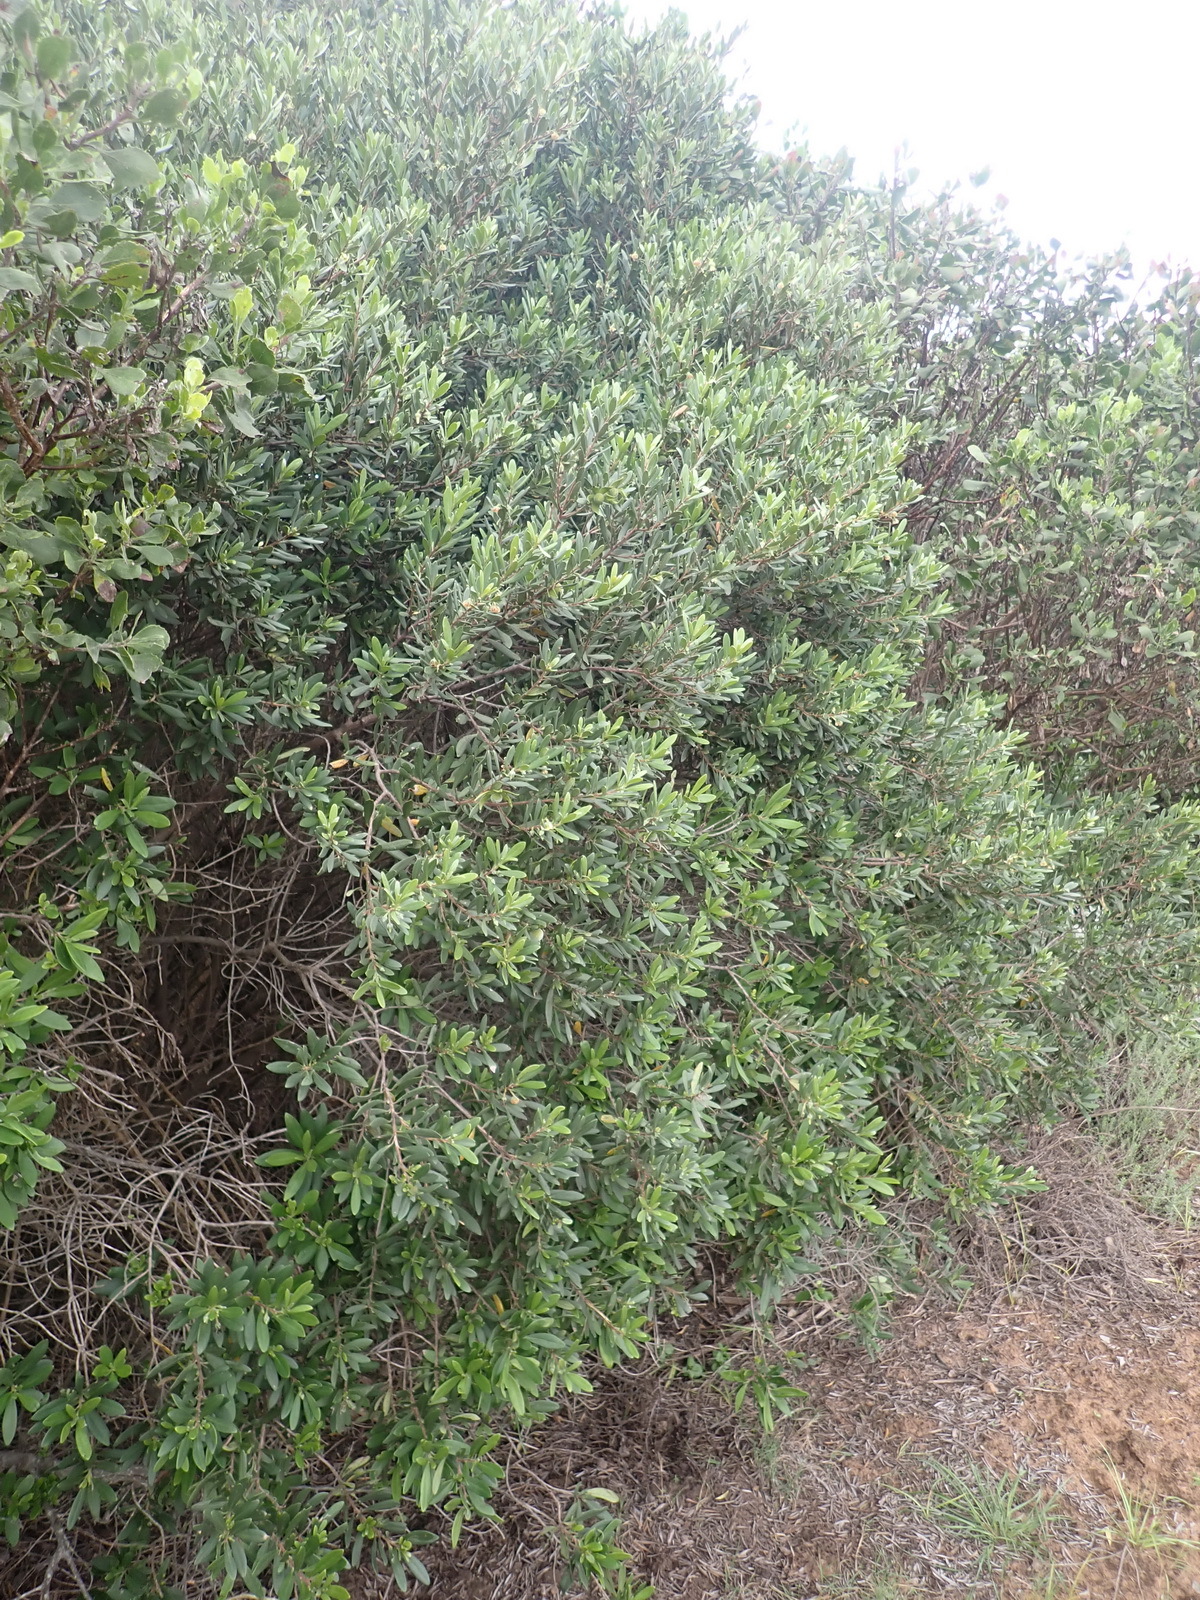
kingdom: Plantae
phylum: Tracheophyta
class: Magnoliopsida
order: Ericales
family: Ebenaceae
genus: Diospyros
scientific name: Diospyros dichrophylla
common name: Common star-apple
